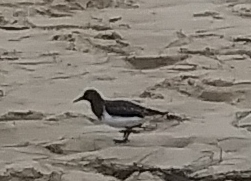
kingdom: Animalia
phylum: Chordata
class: Aves
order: Charadriiformes
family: Scolopacidae
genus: Arenaria
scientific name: Arenaria melanocephala
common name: Black turnstone
